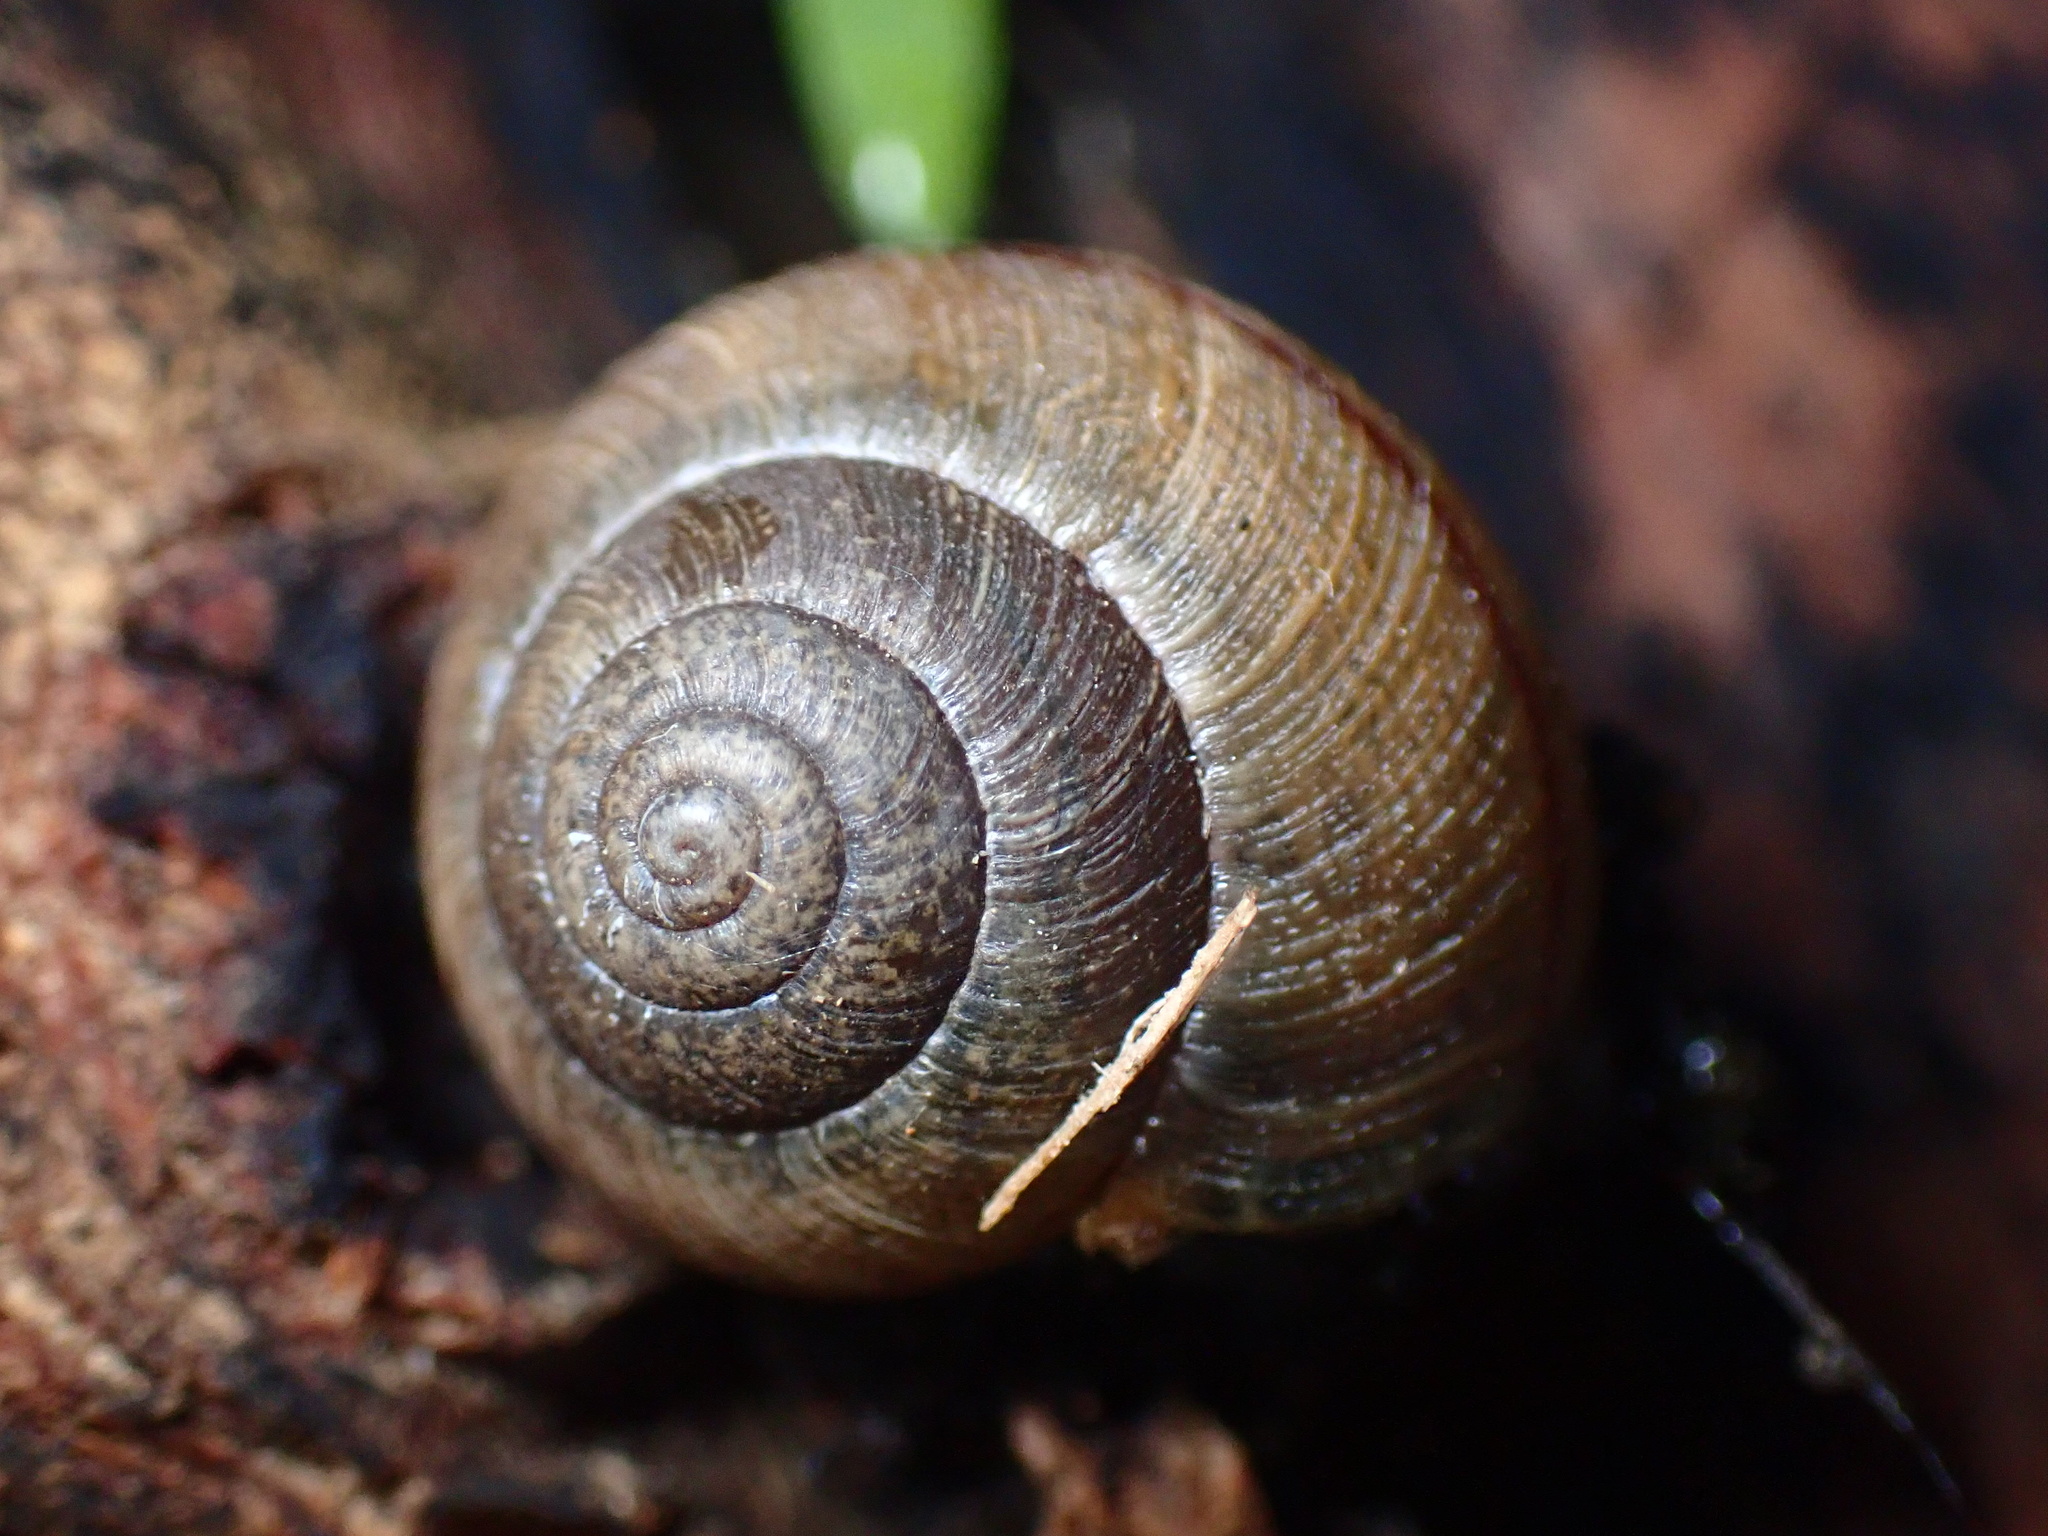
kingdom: Animalia
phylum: Mollusca
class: Gastropoda
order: Stylommatophora
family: Xanthonychidae
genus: Helminthoglypta
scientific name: Helminthoglypta nickliniana
